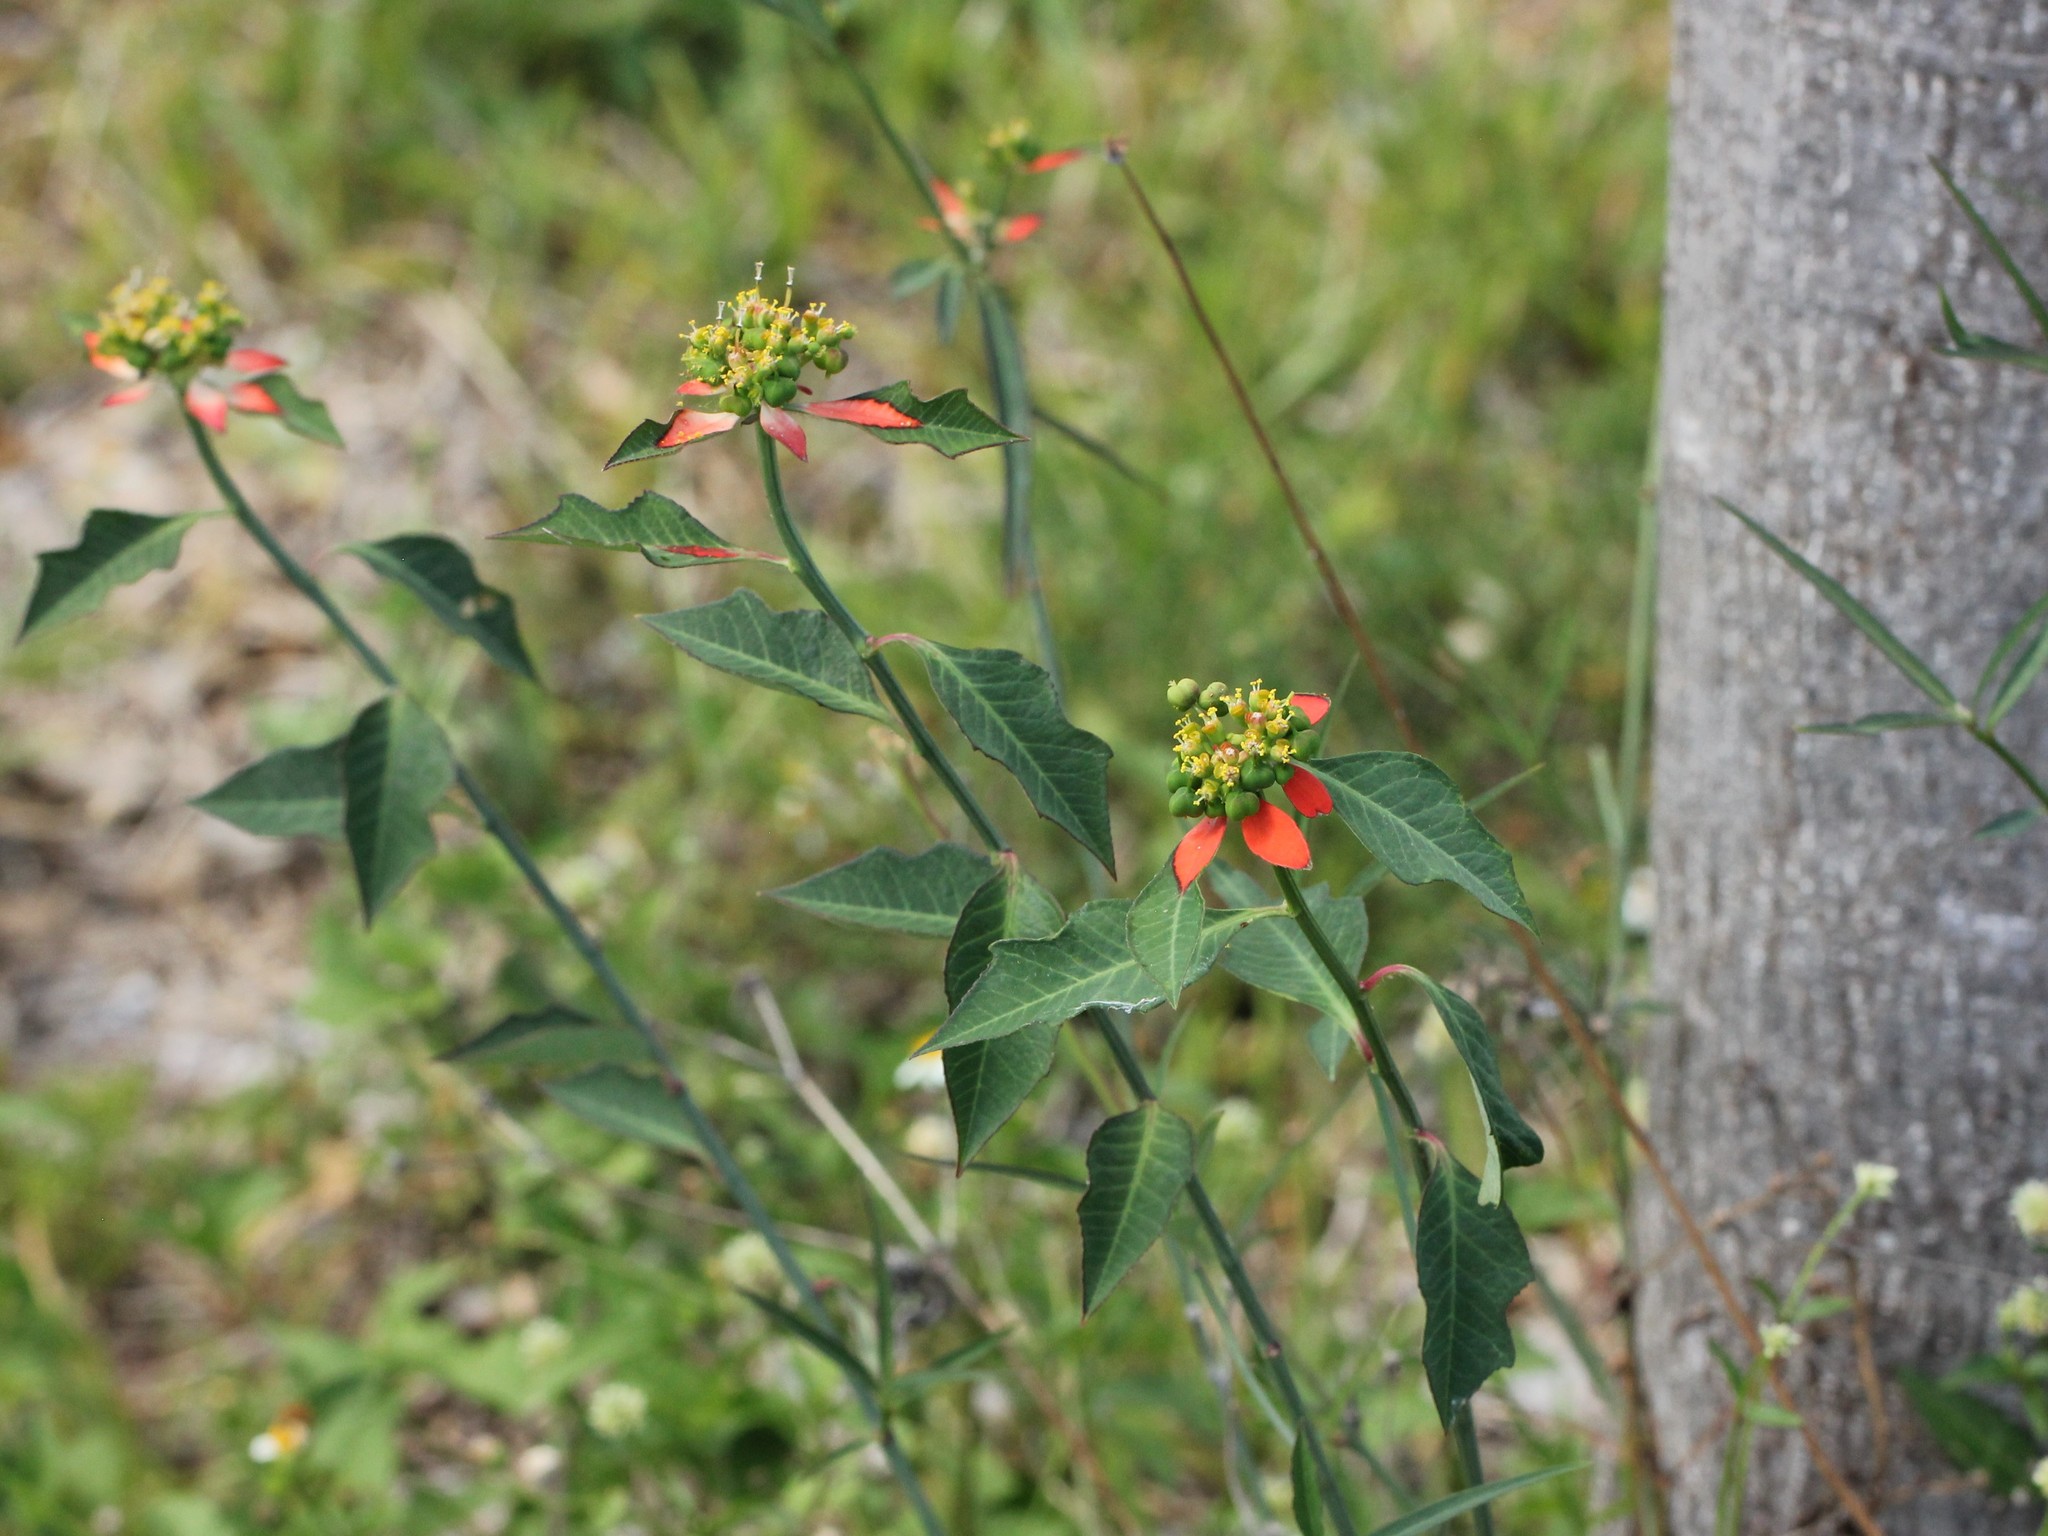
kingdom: Plantae
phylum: Tracheophyta
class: Magnoliopsida
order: Malpighiales
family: Euphorbiaceae
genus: Euphorbia
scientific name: Euphorbia heterophylla
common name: Mexican fireplant
